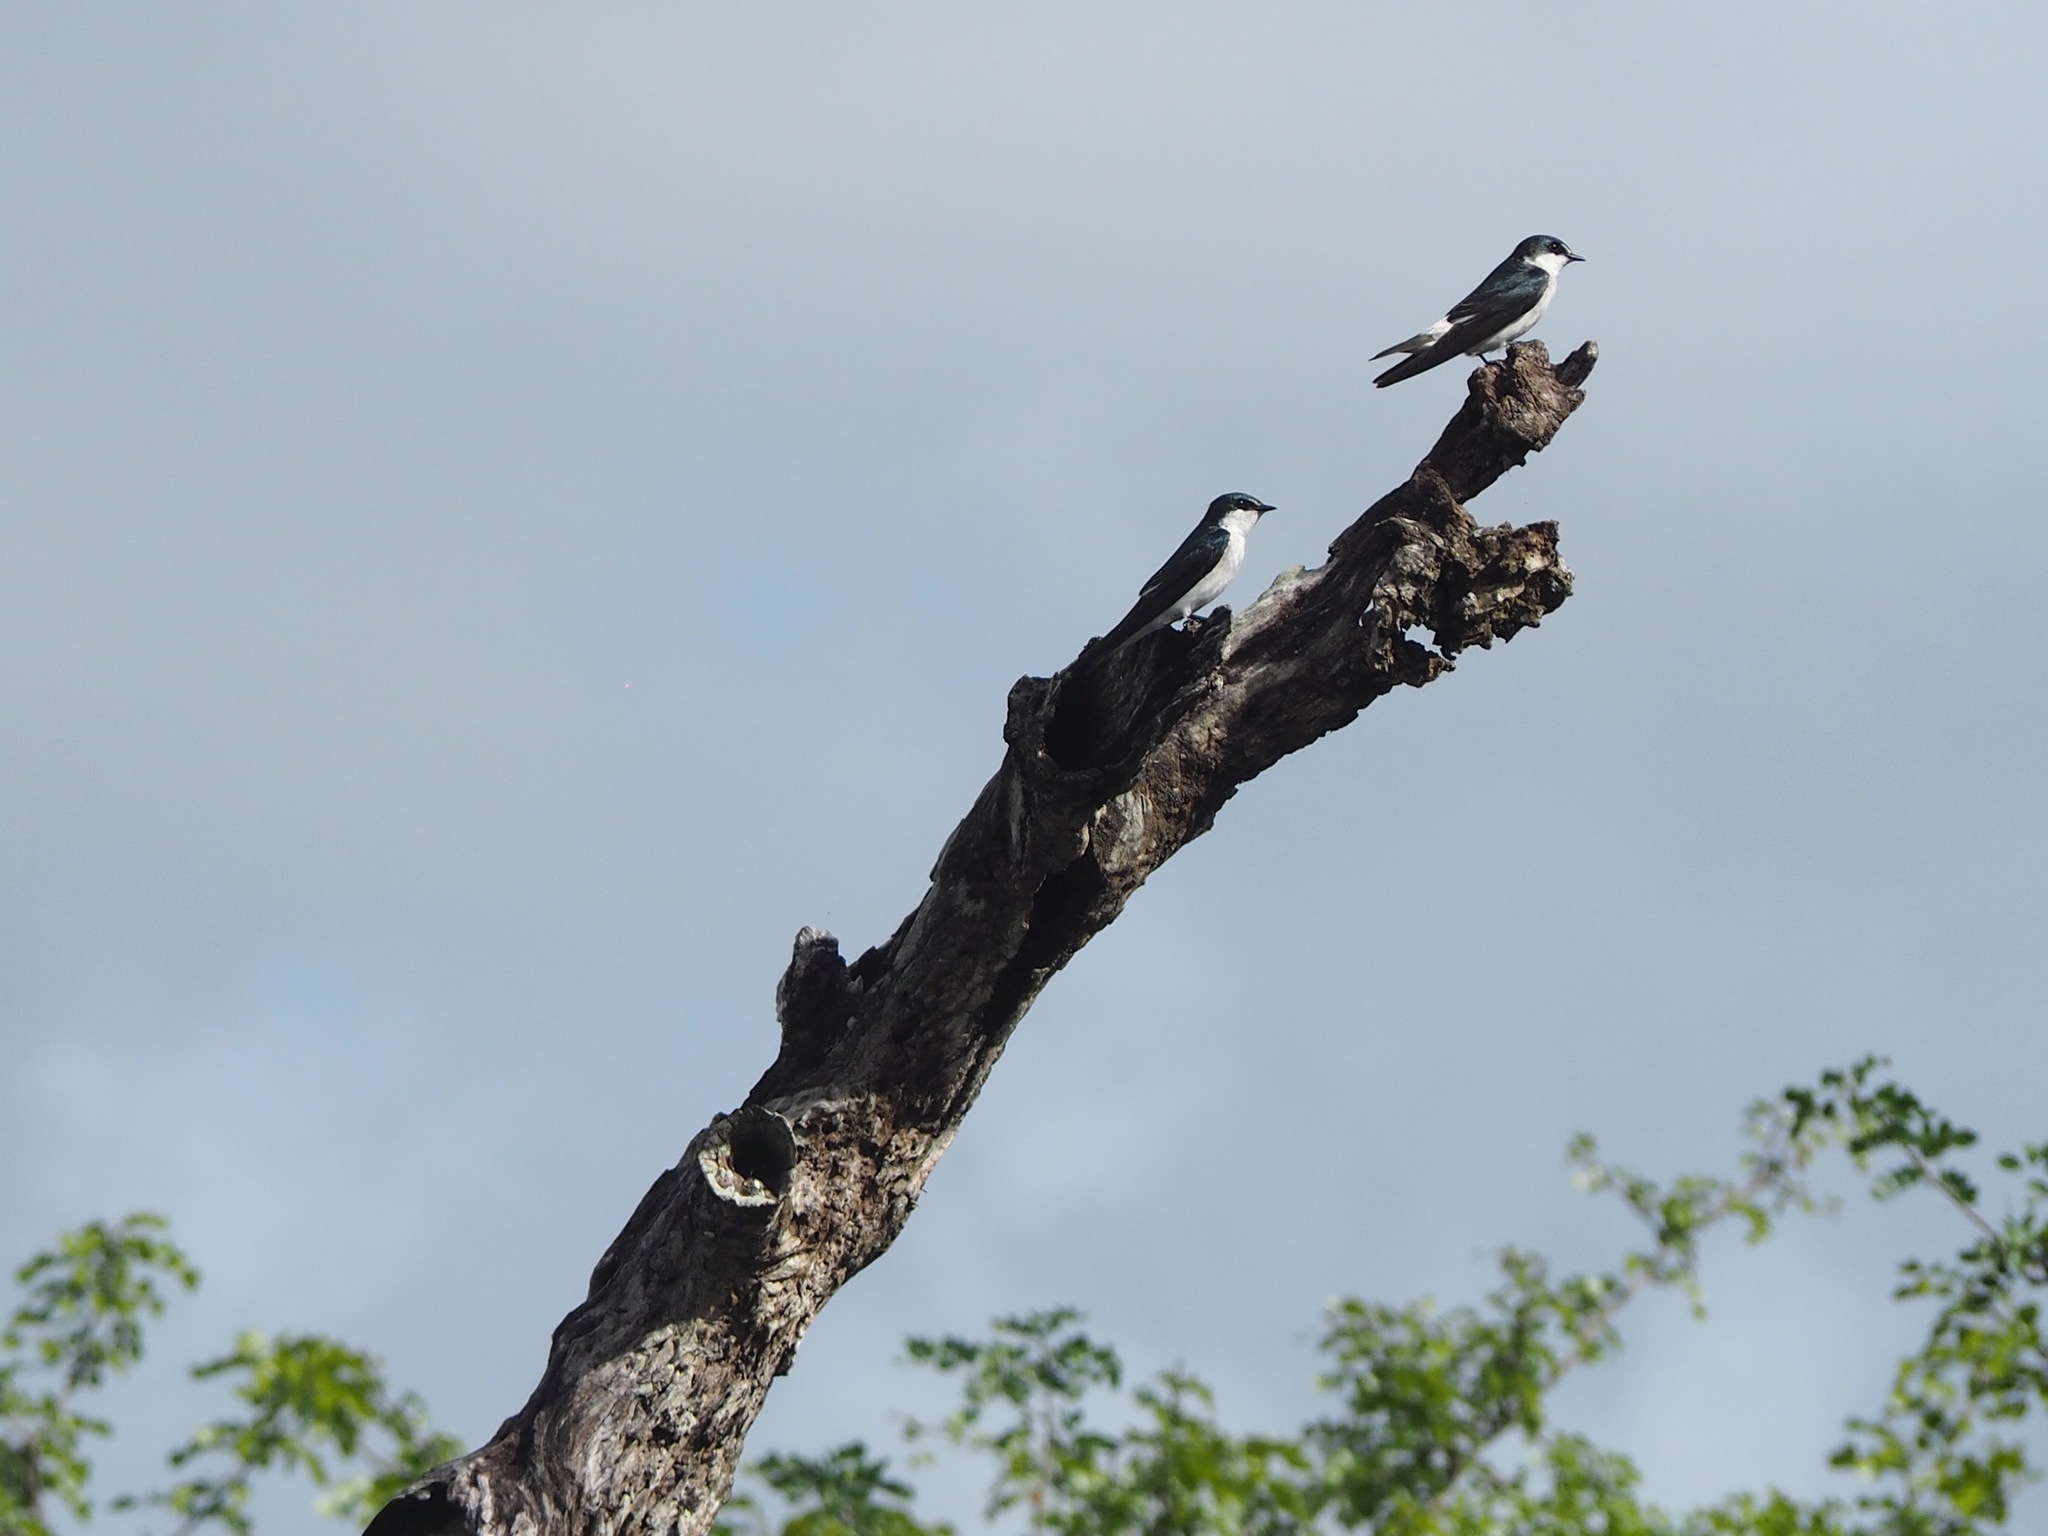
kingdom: Animalia
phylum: Chordata
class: Aves
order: Passeriformes
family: Hirundinidae
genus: Tachycineta
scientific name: Tachycineta albilinea
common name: Mangrove swallow
